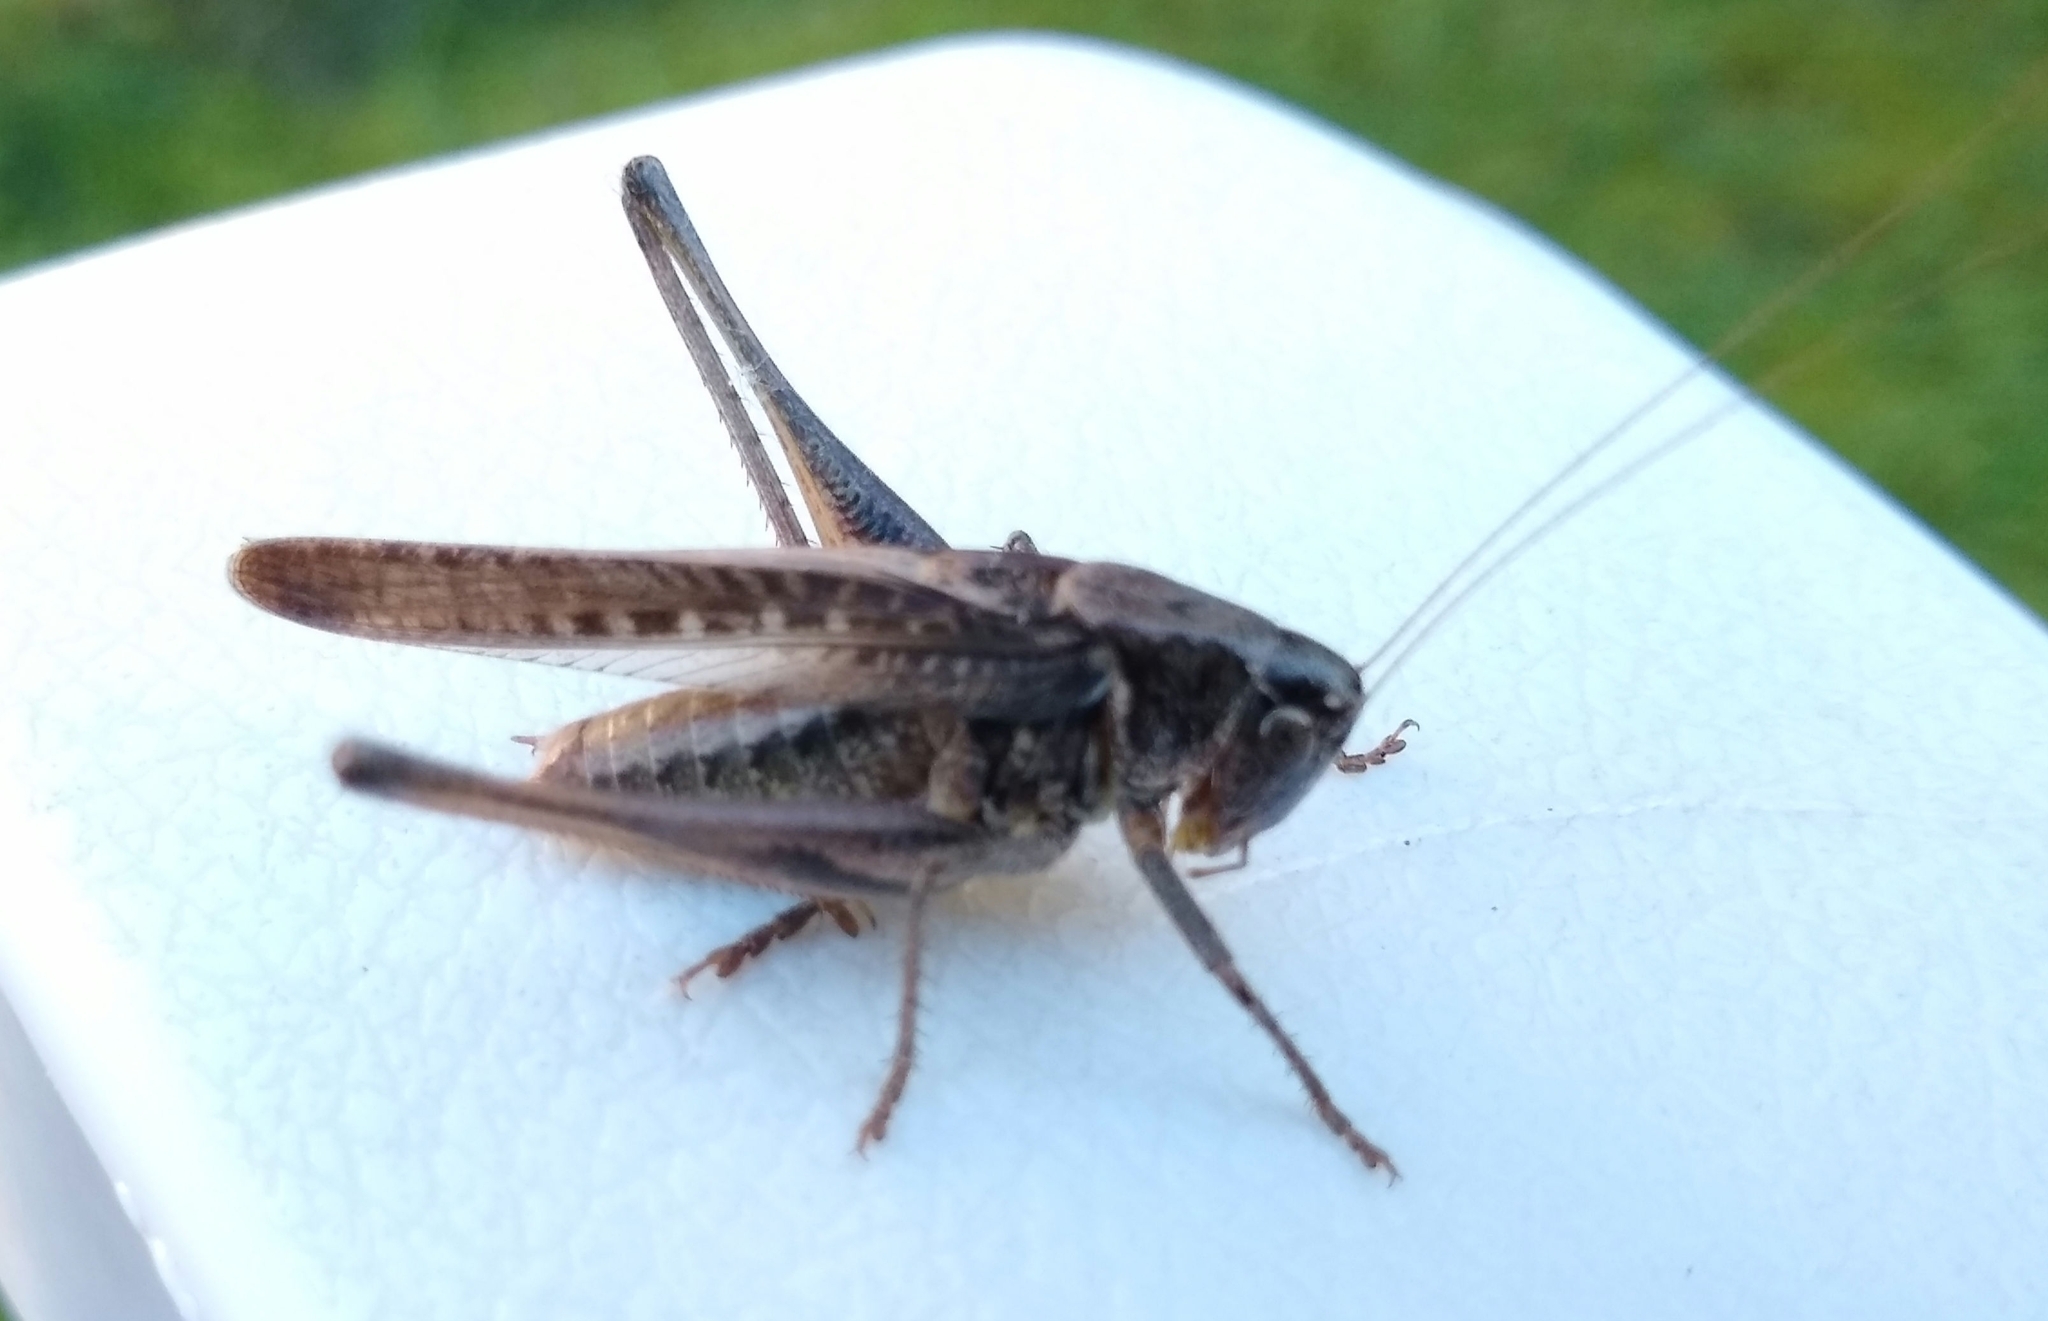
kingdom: Animalia
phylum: Arthropoda
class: Insecta
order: Orthoptera
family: Tettigoniidae
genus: Platycleis
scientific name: Platycleis albopunctata
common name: Grey bush-cricket
